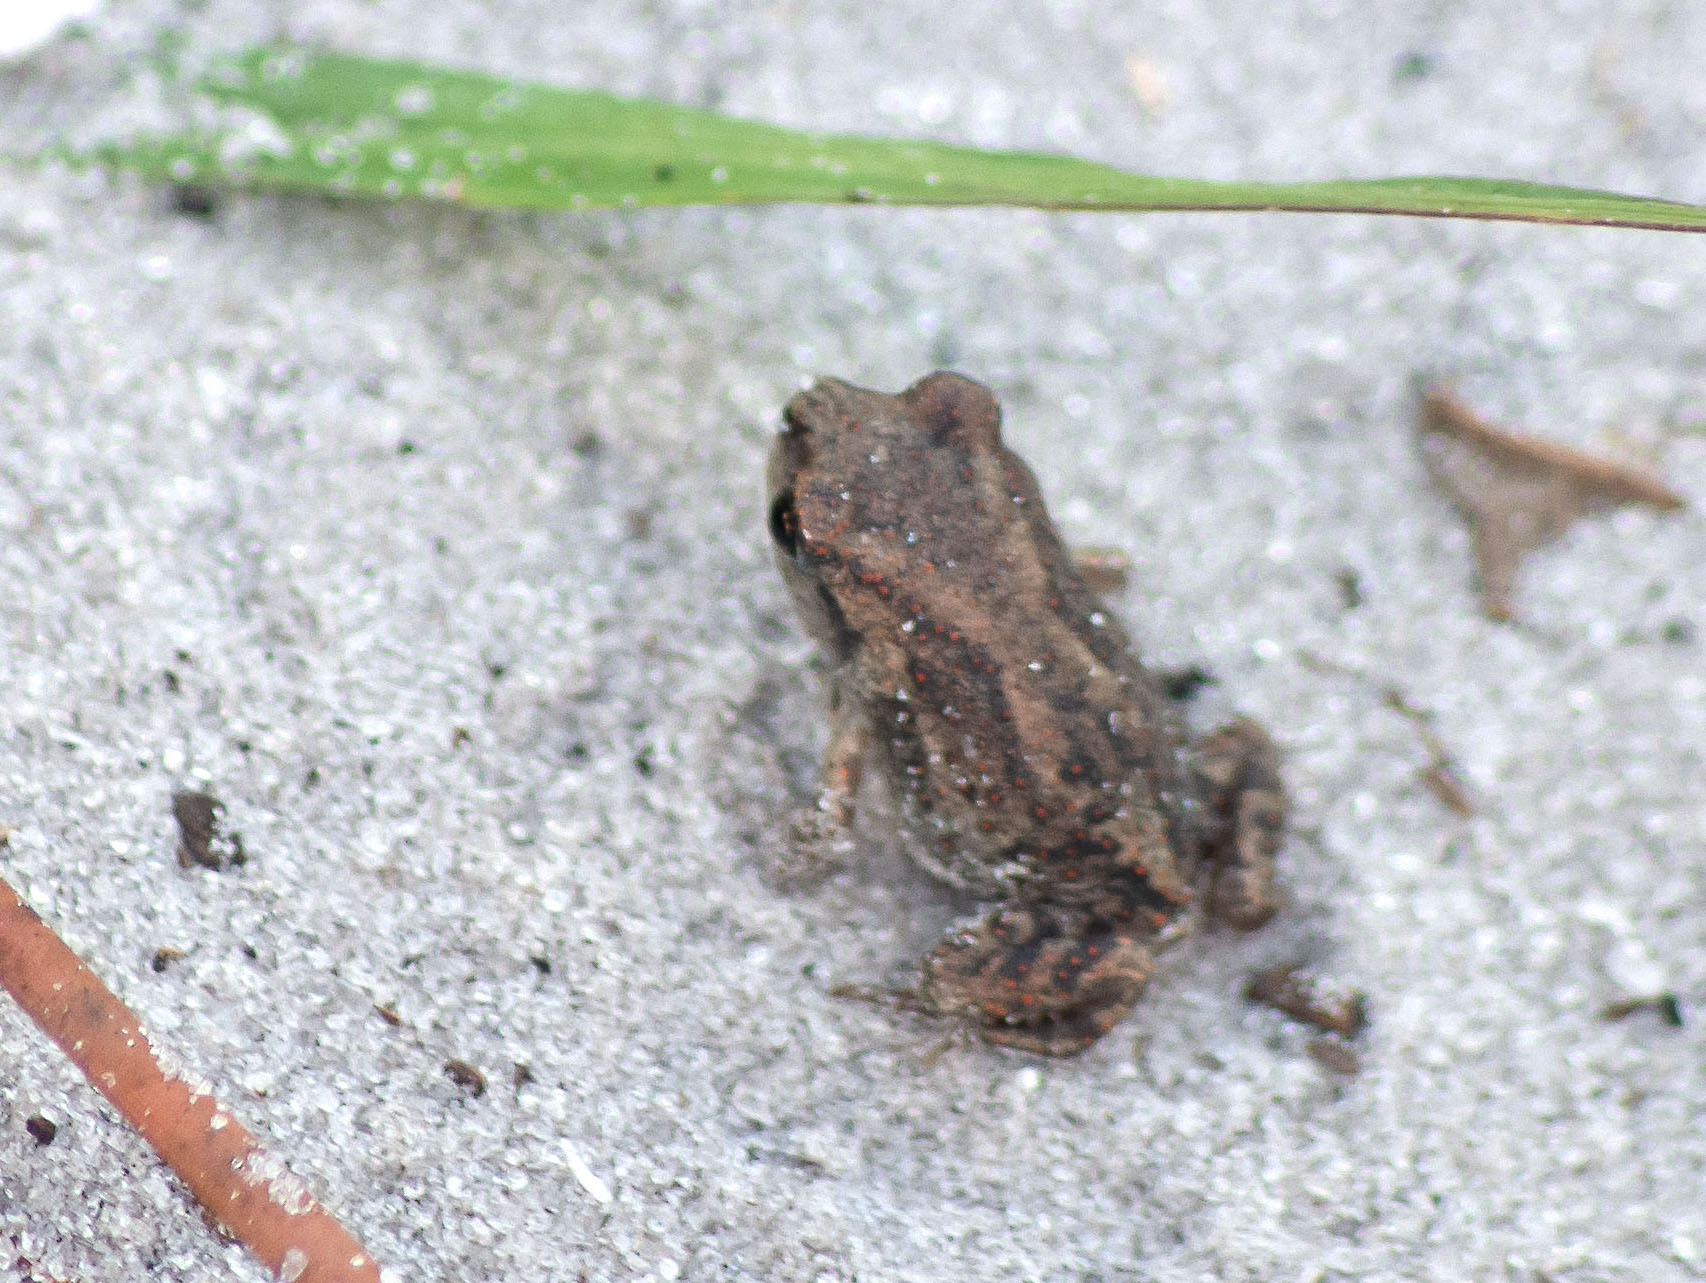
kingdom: Animalia
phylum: Chordata
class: Amphibia
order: Anura
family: Scaphiopodidae
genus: Scaphiopus
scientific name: Scaphiopus holbrookii
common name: Eastern spadefoot toad
